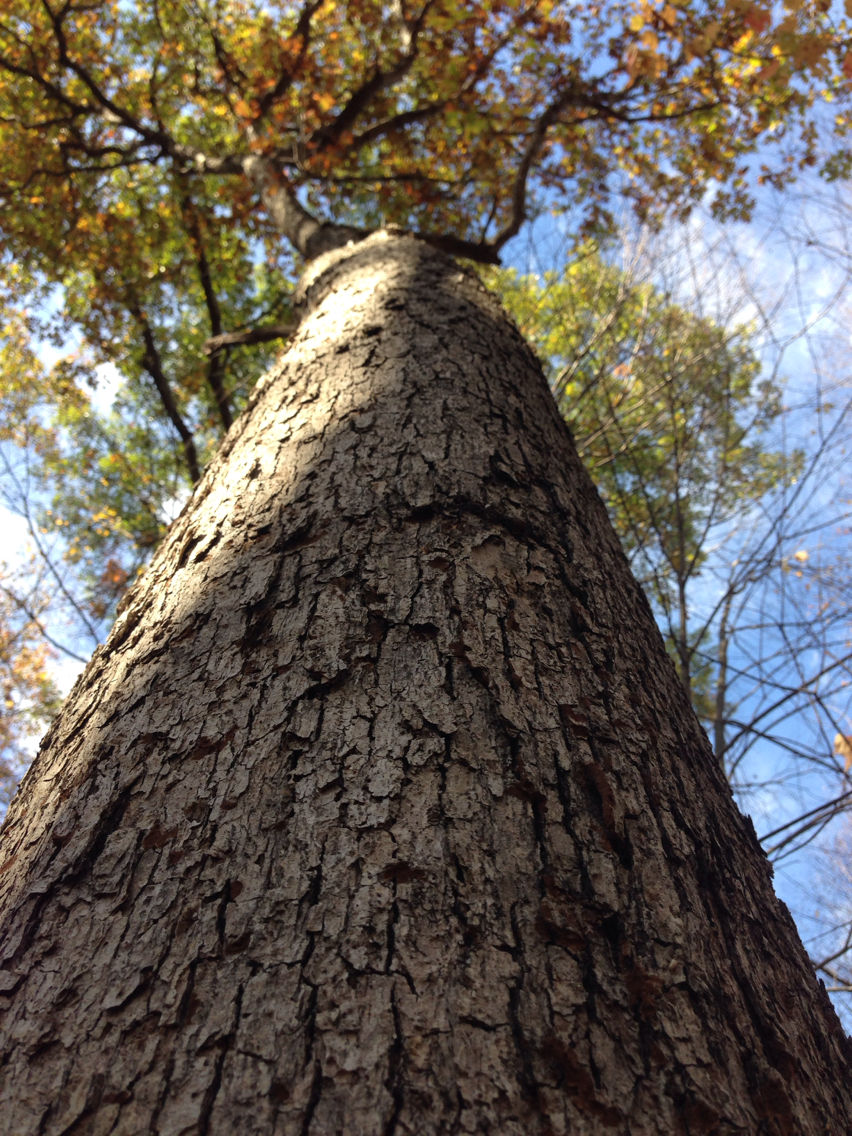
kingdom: Plantae
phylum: Tracheophyta
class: Magnoliopsida
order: Fagales
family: Fagaceae
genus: Quercus
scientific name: Quercus alba
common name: White oak
